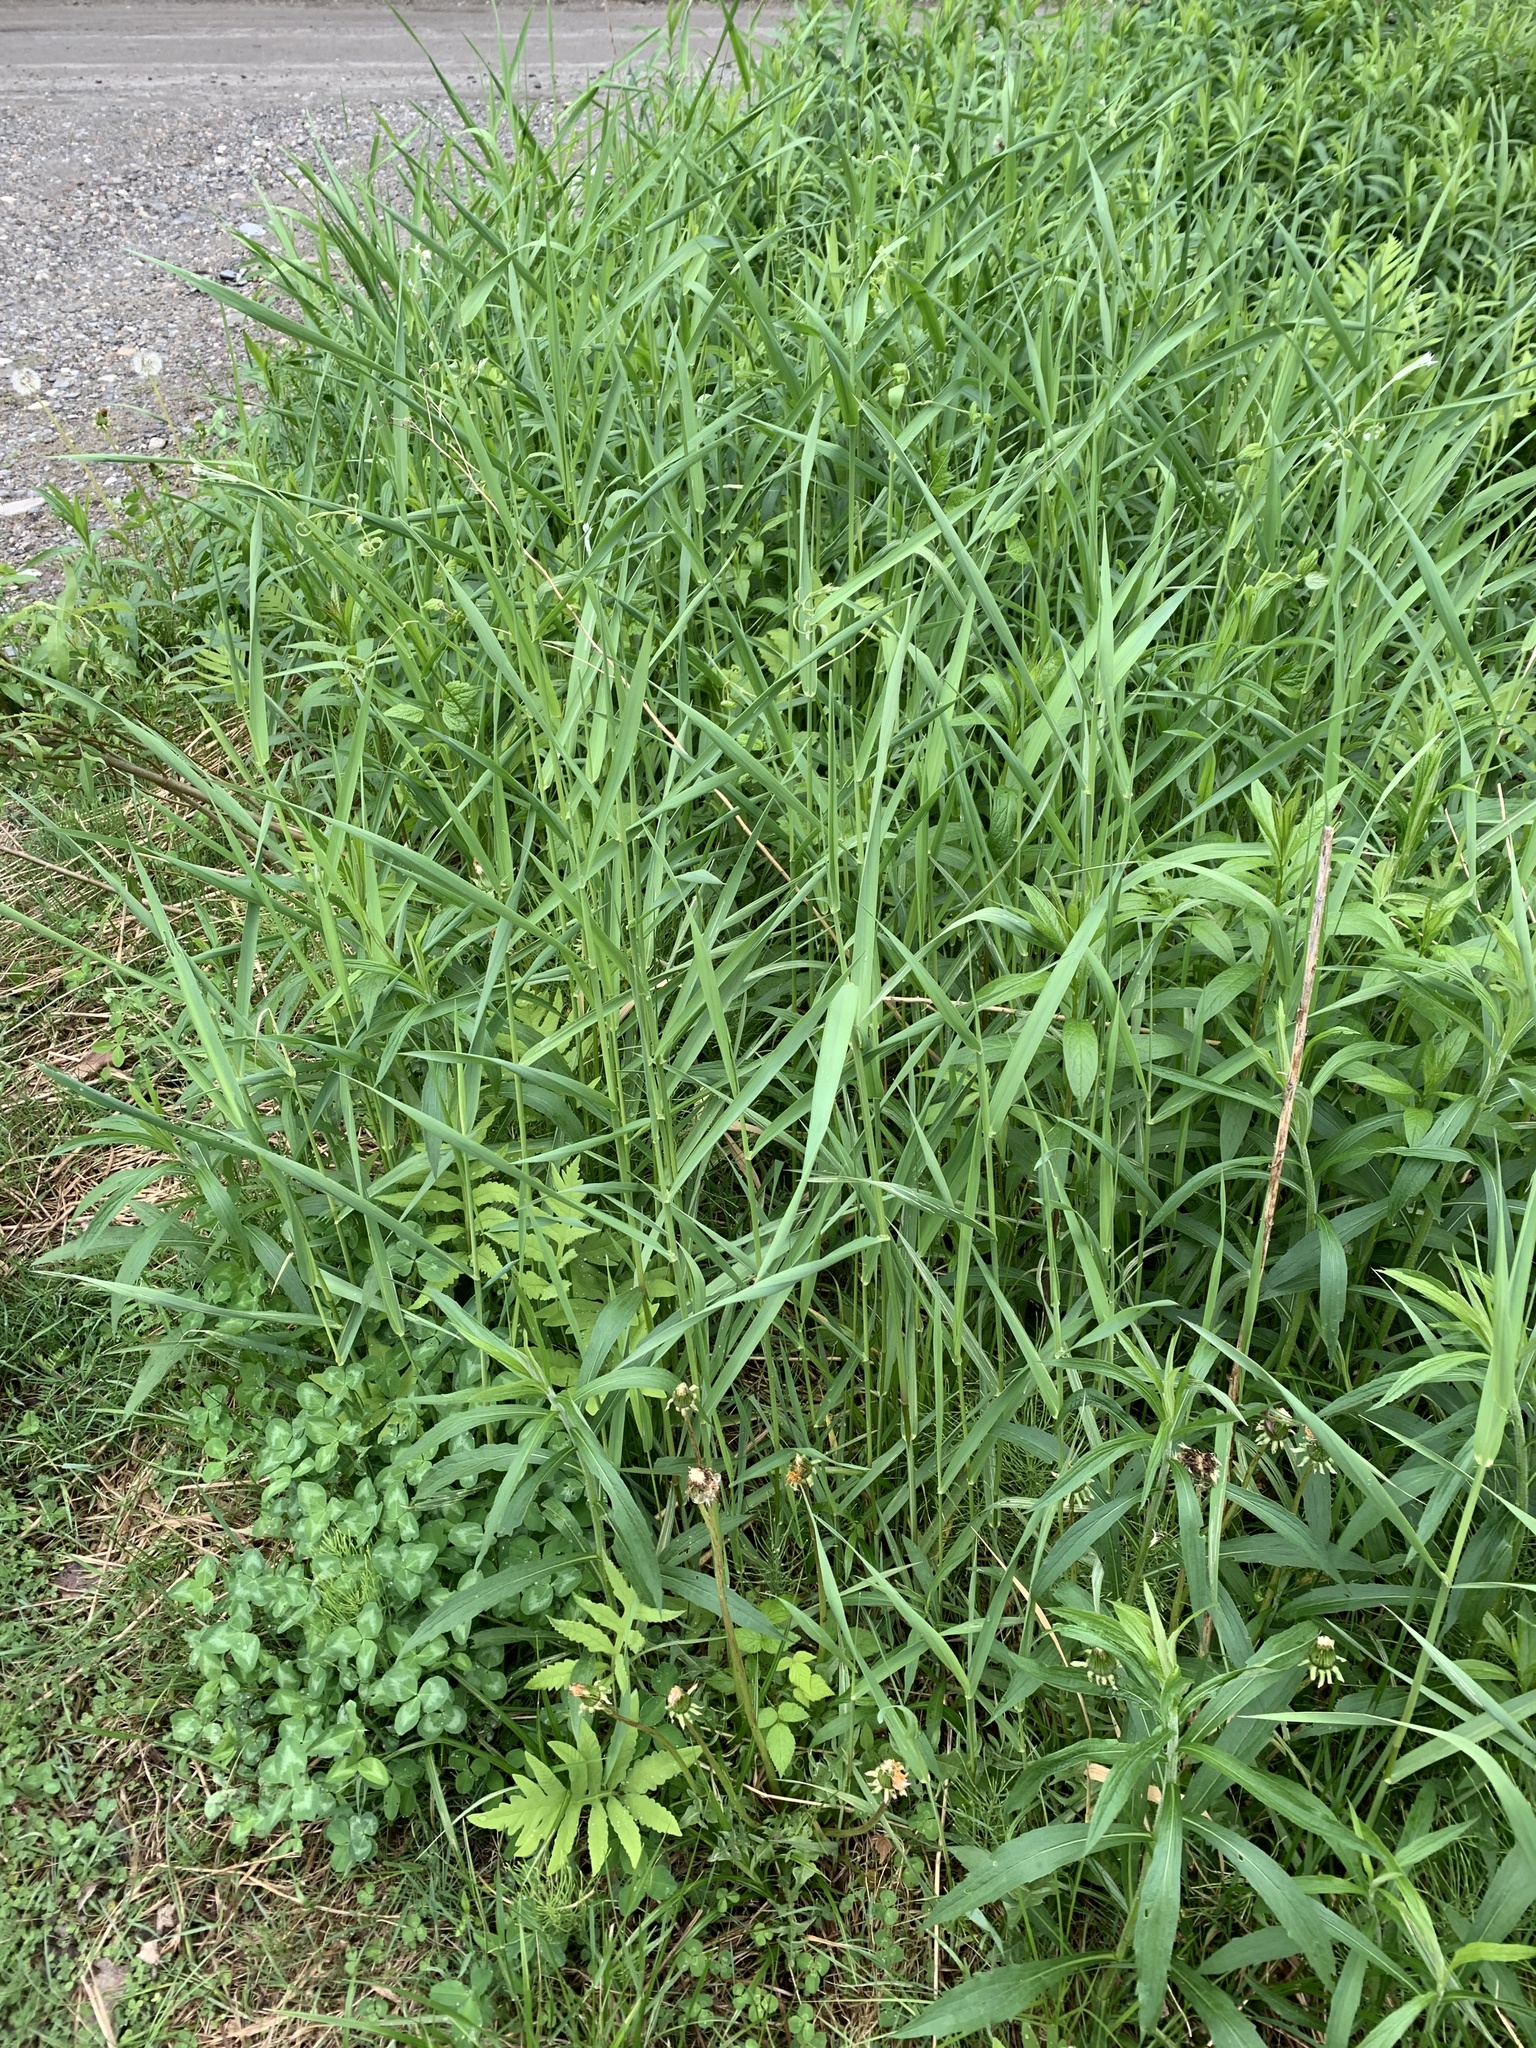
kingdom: Plantae
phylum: Tracheophyta
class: Liliopsida
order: Poales
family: Poaceae
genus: Phalaris
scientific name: Phalaris arundinacea
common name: Reed canary-grass
